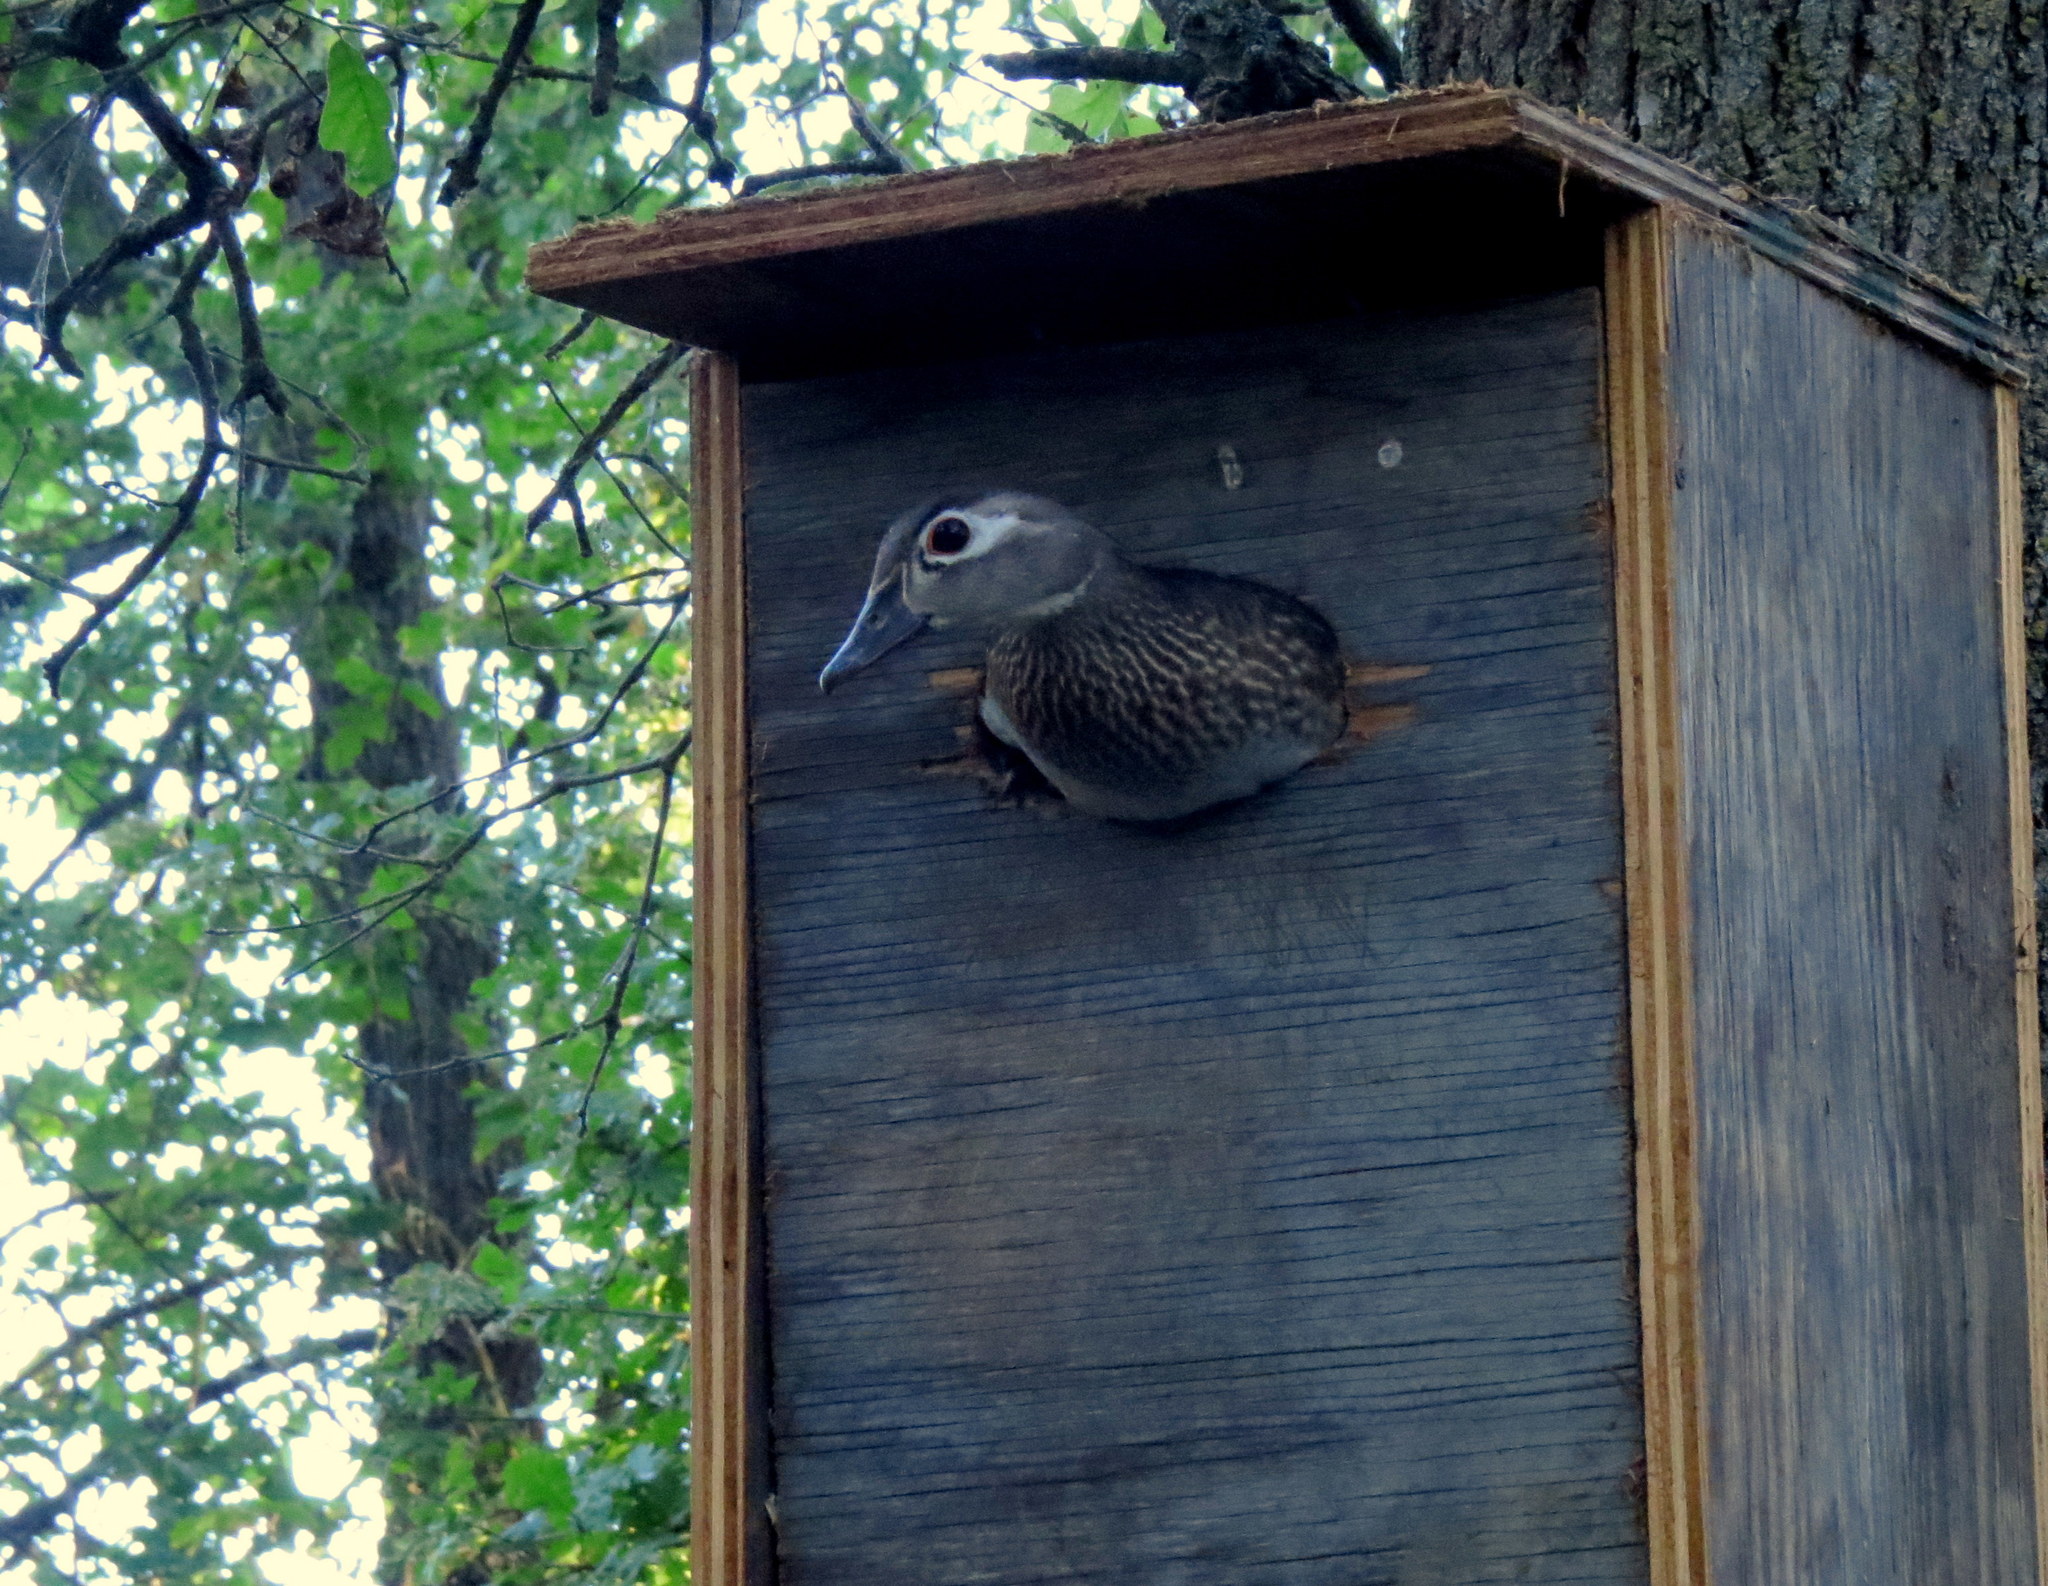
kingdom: Animalia
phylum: Chordata
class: Aves
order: Anseriformes
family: Anatidae
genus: Aix
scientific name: Aix sponsa
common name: Wood duck
